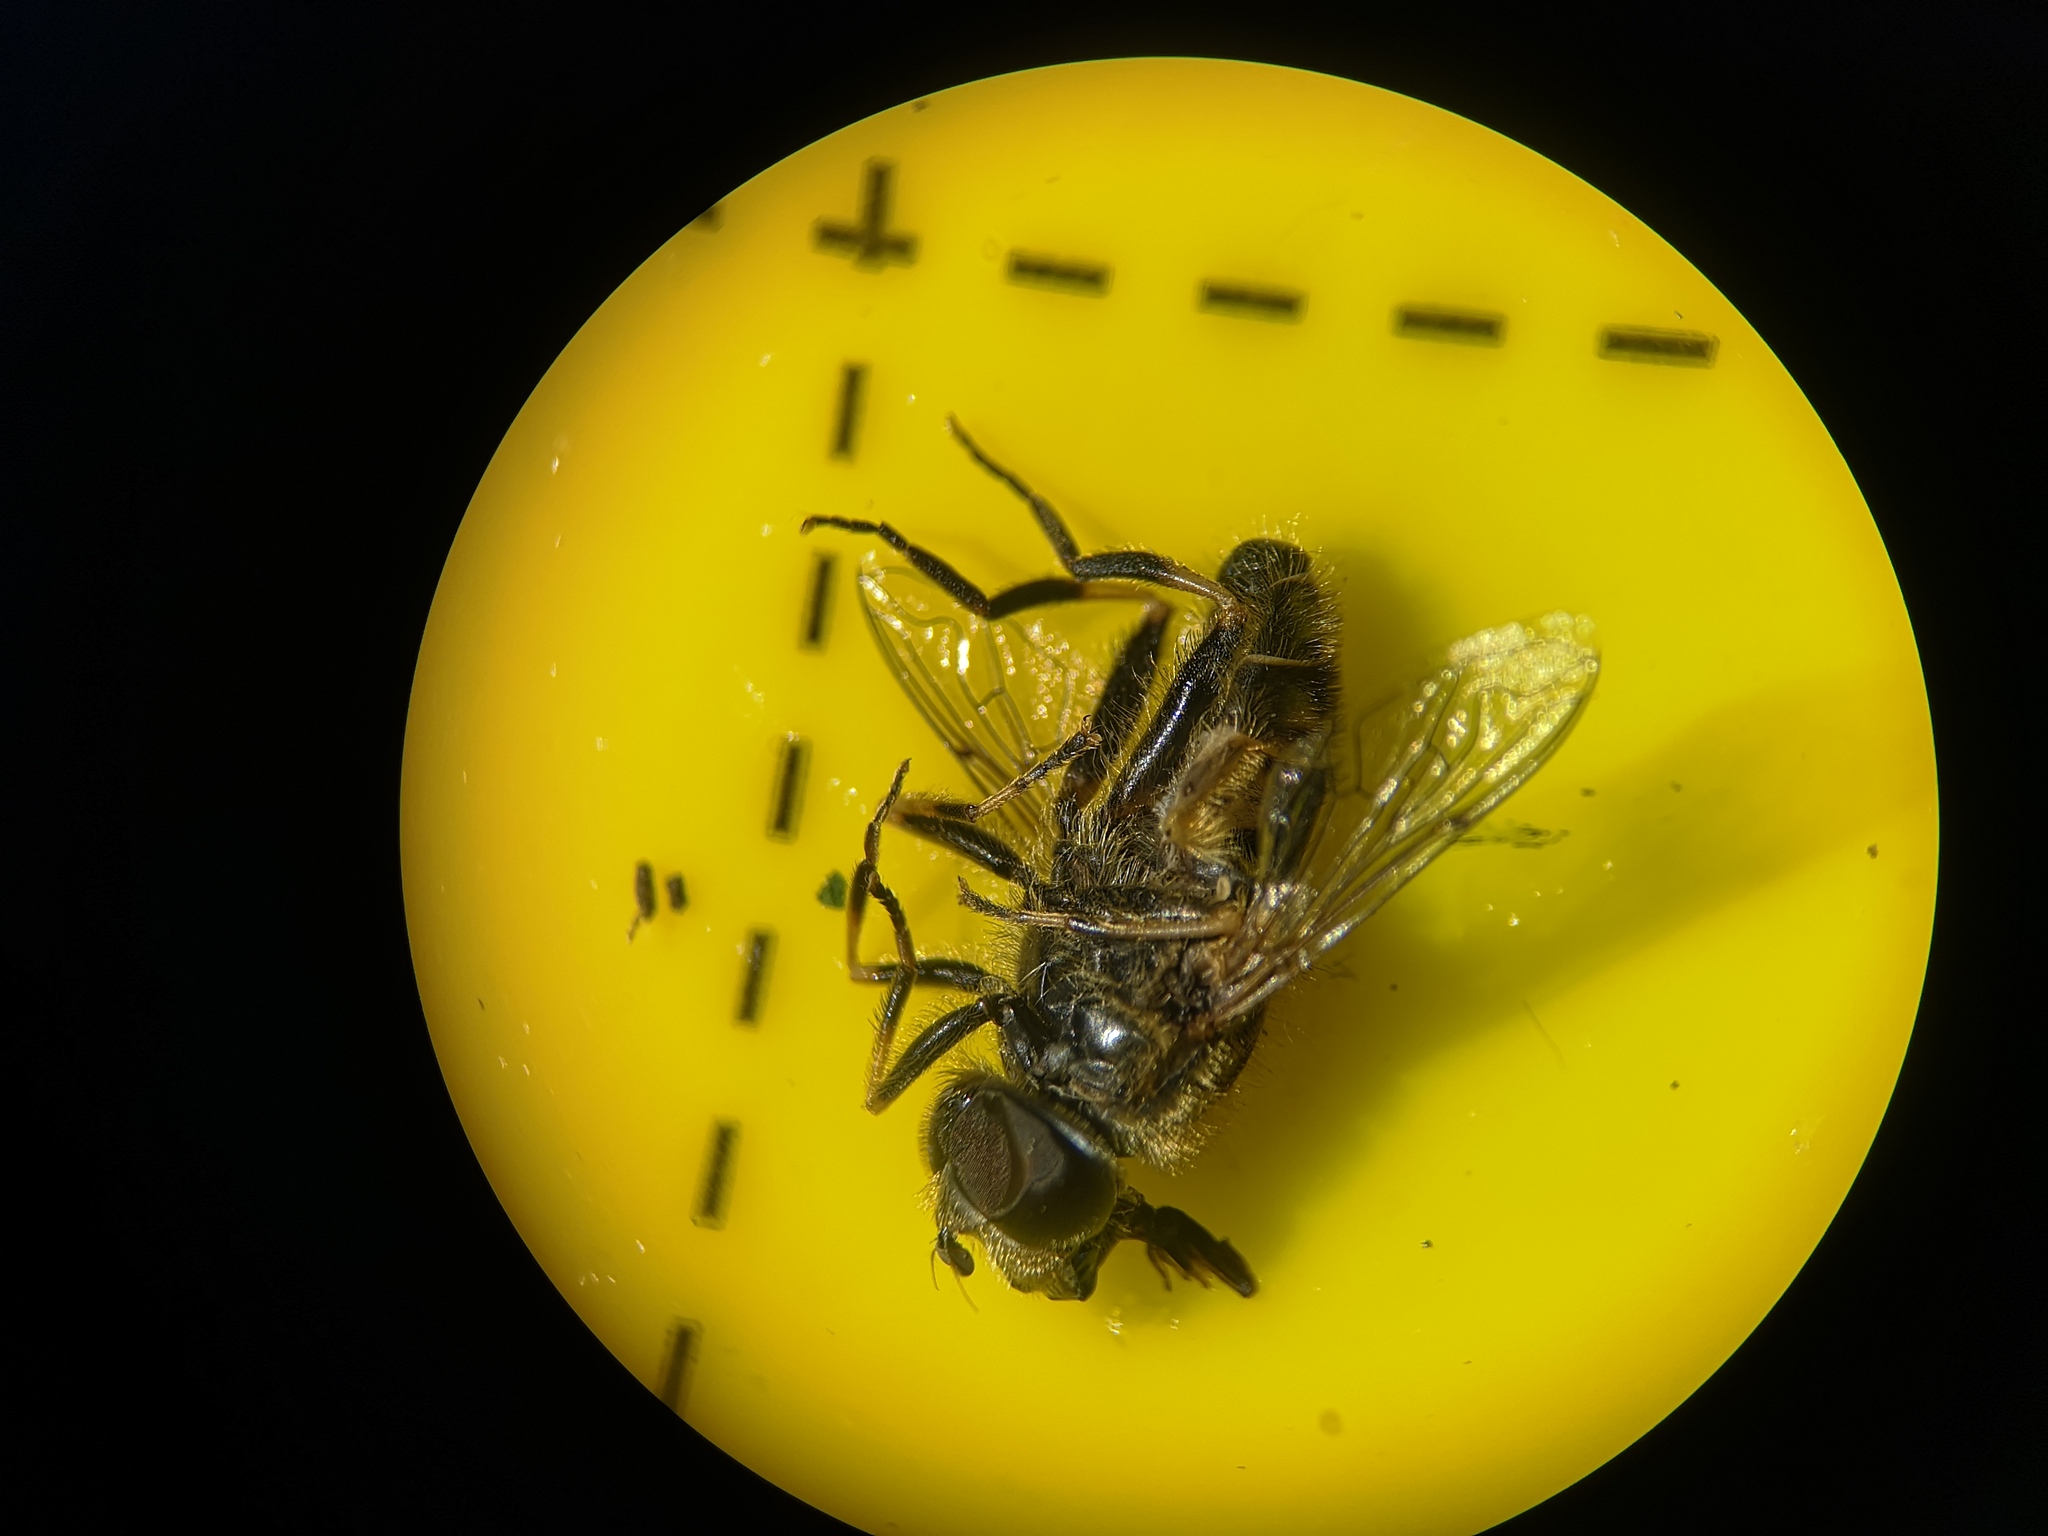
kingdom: Animalia
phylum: Arthropoda
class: Insecta
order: Diptera
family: Syrphidae
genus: Eristalis
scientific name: Eristalis nemorum
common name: Orange-spined drone fly
